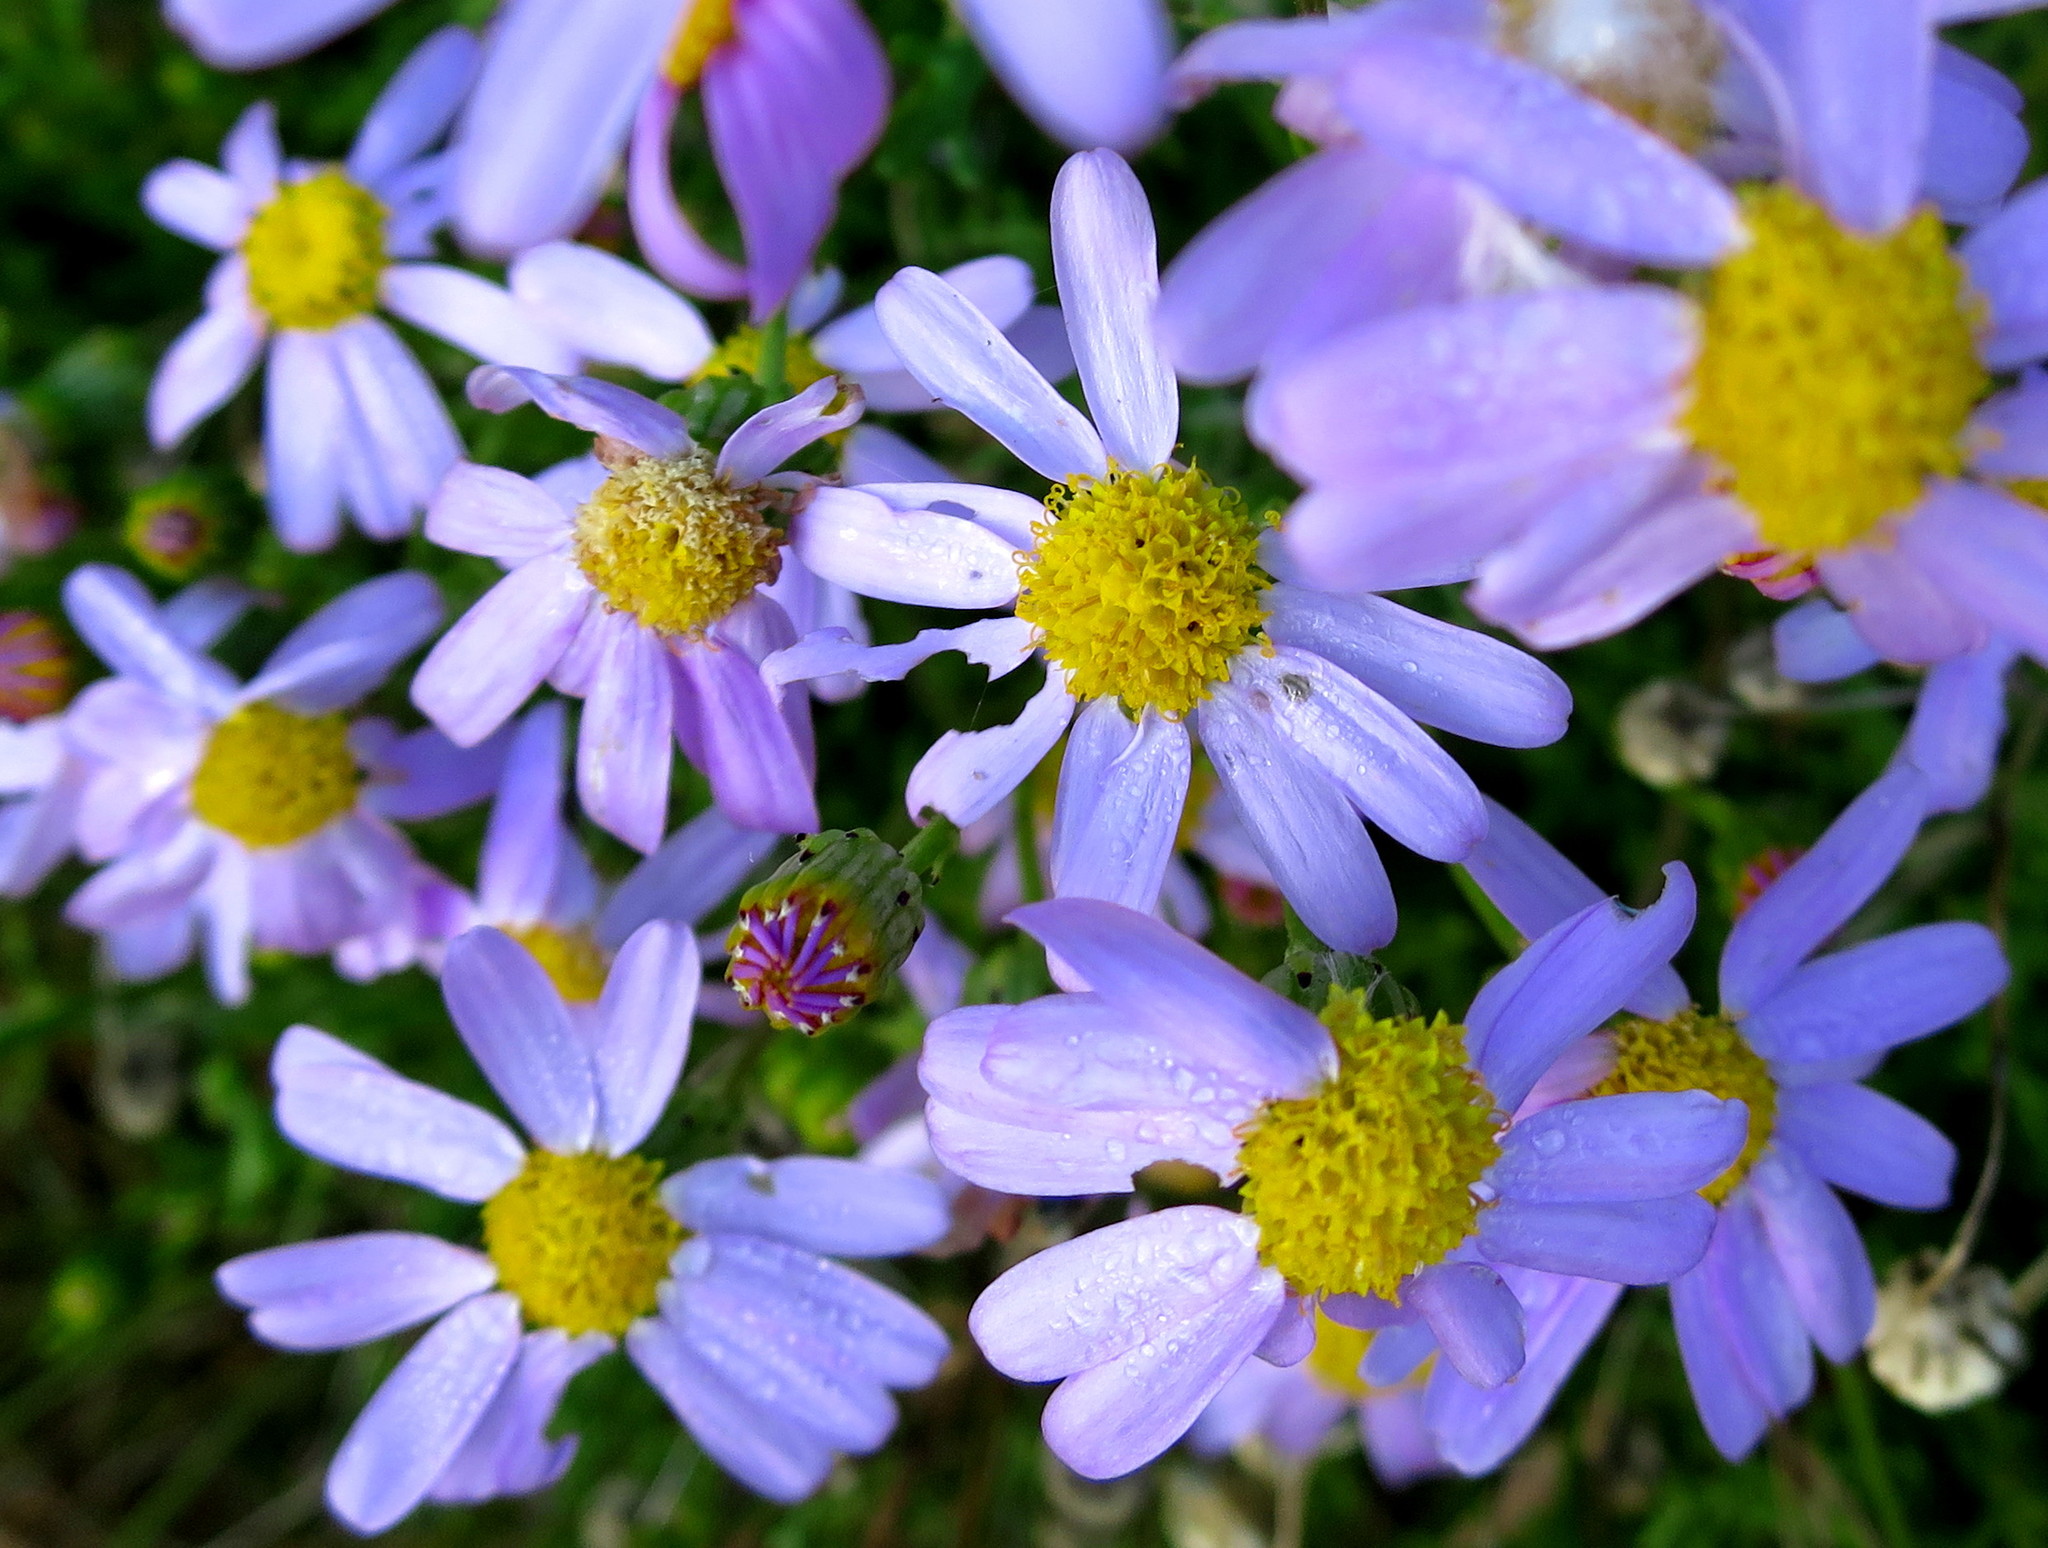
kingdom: Plantae
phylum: Tracheophyta
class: Magnoliopsida
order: Asterales
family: Asteraceae
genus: Senecio
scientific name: Senecio elegans
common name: Purple groundsel
